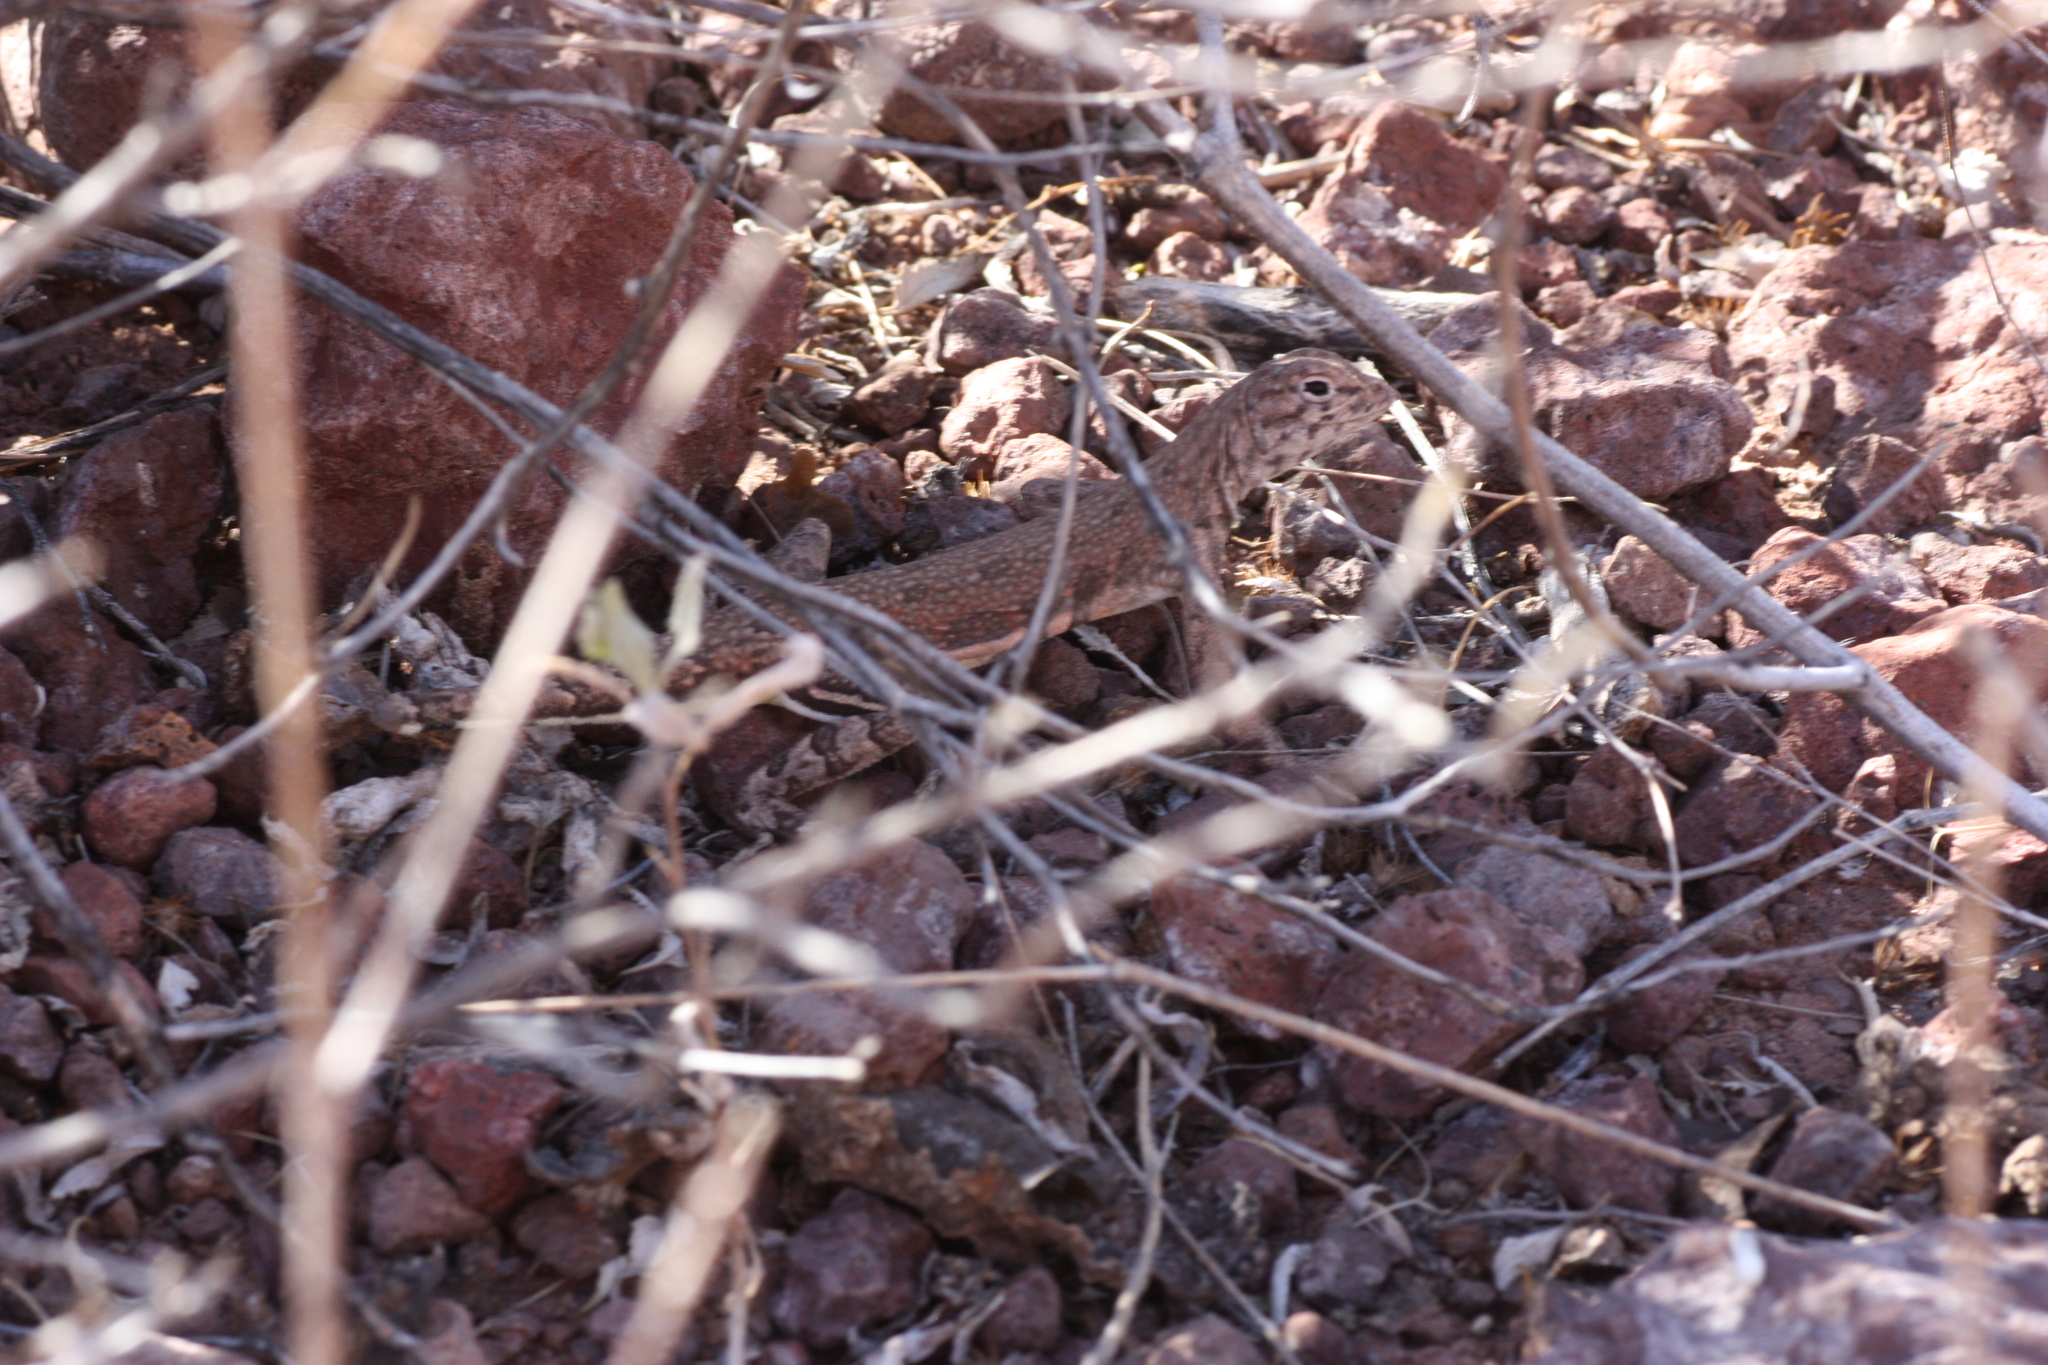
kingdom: Animalia
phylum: Chordata
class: Squamata
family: Phrynosomatidae
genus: Callisaurus
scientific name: Callisaurus draconoides
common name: Zebra-tailed lizard
